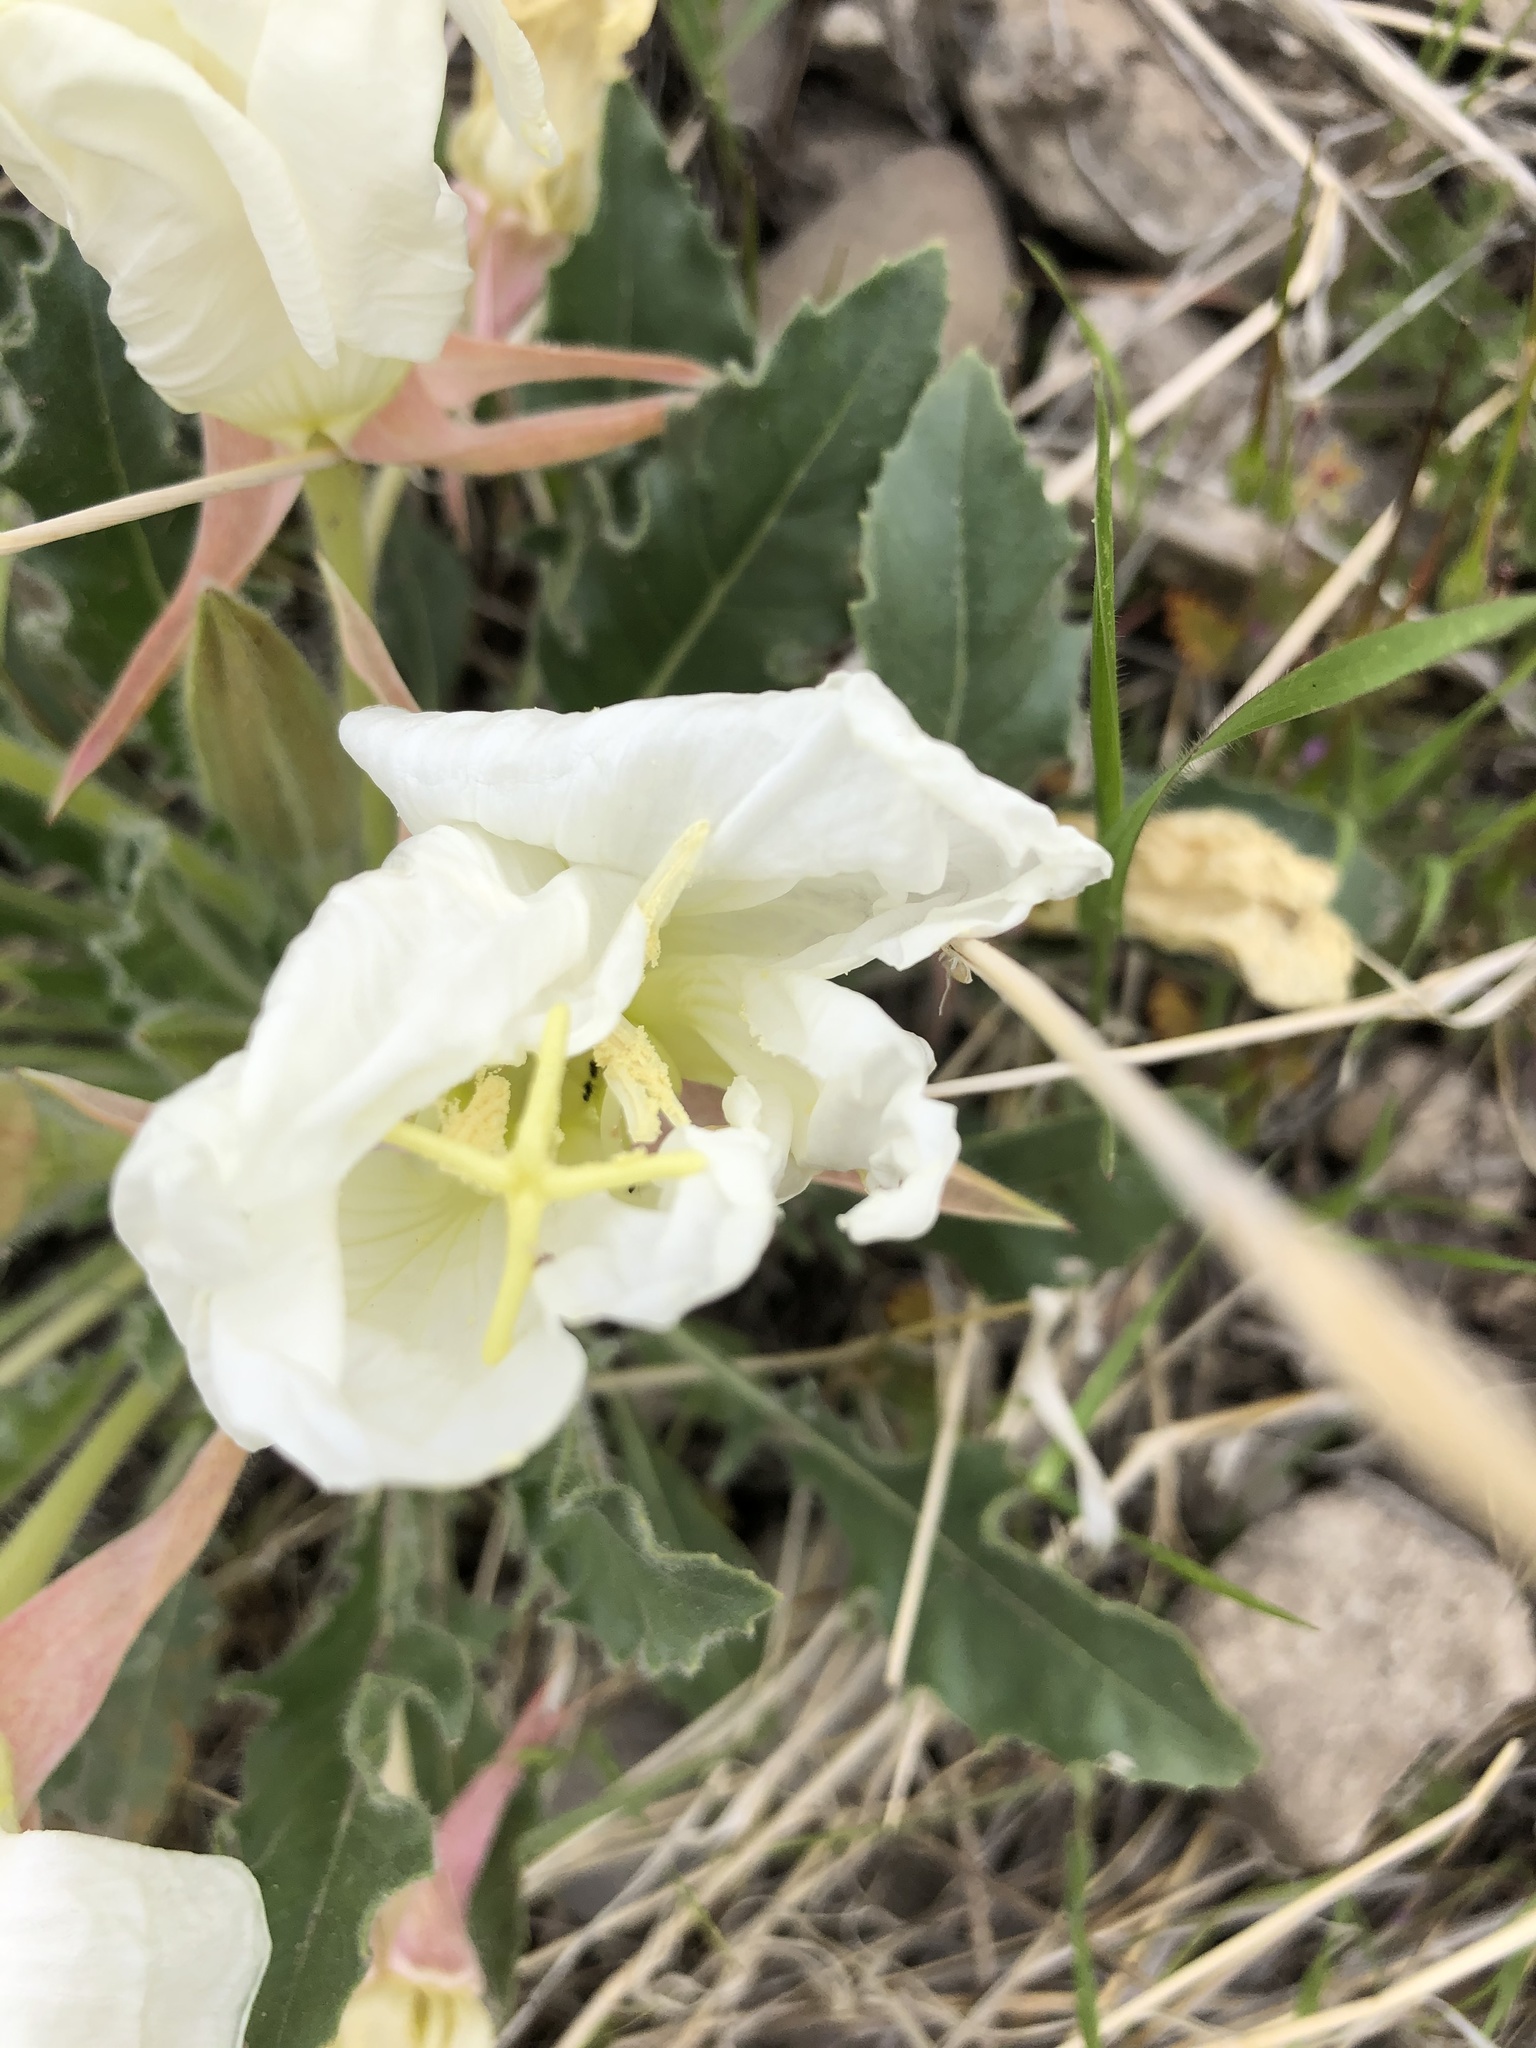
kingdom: Plantae
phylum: Tracheophyta
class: Magnoliopsida
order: Myrtales
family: Onagraceae
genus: Oenothera
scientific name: Oenothera cespitosa
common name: Tufted evening-primrose
